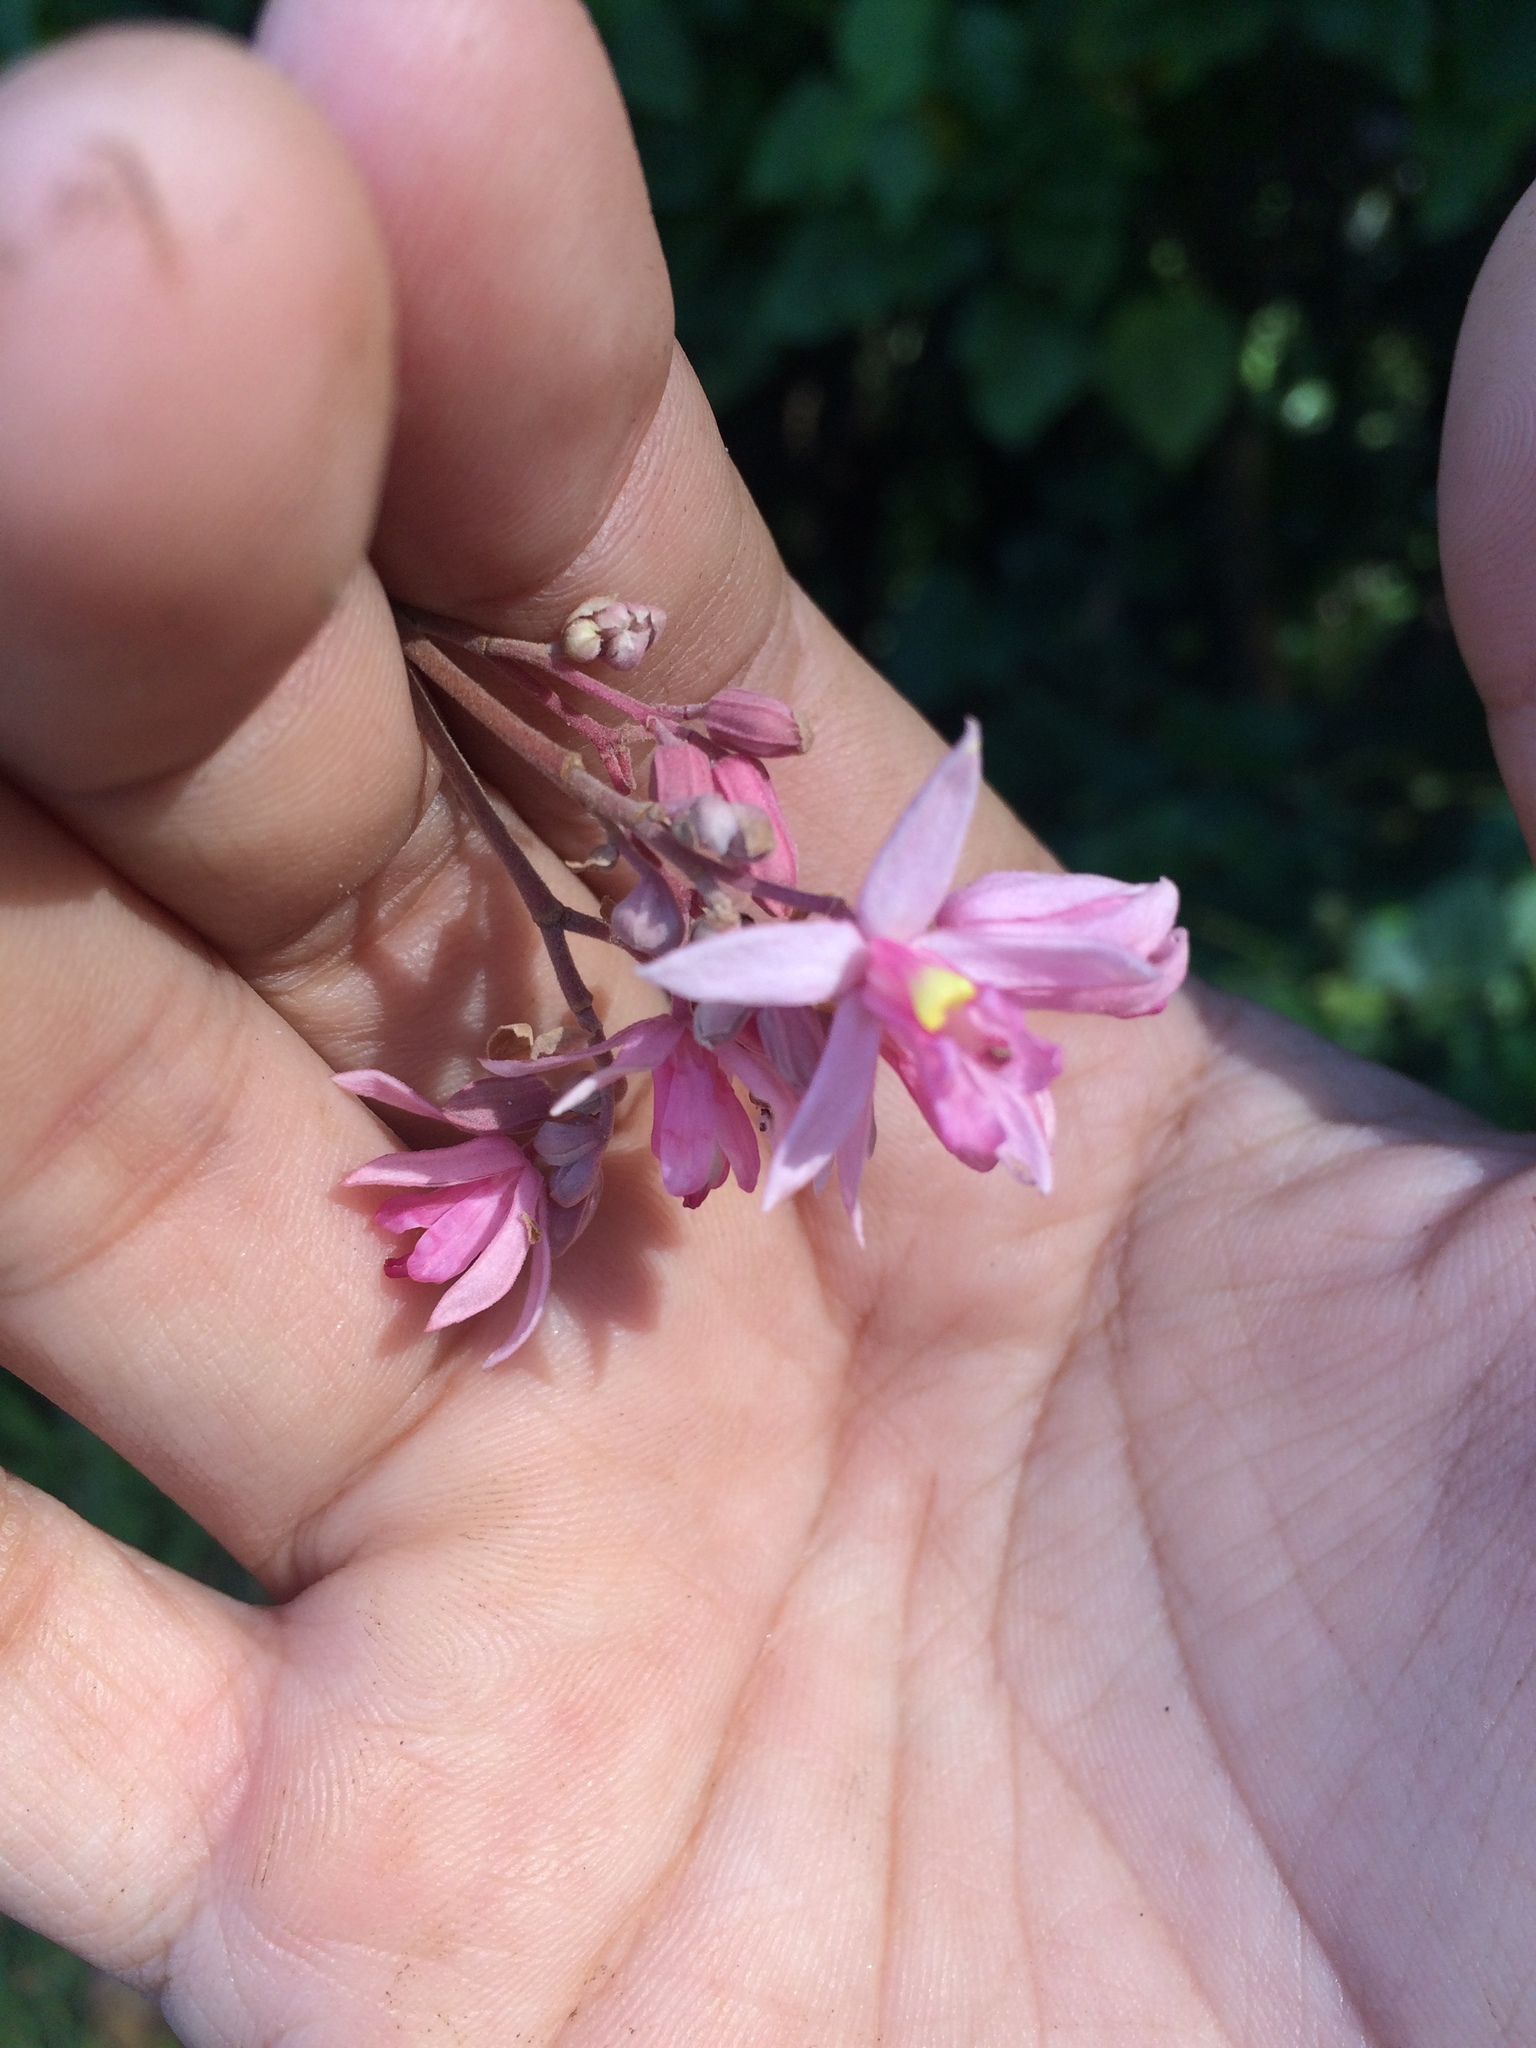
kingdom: Plantae
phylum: Tracheophyta
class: Magnoliopsida
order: Malvales
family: Malvaceae
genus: Kleinhovia
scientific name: Kleinhovia hospita
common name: Guest-tree
